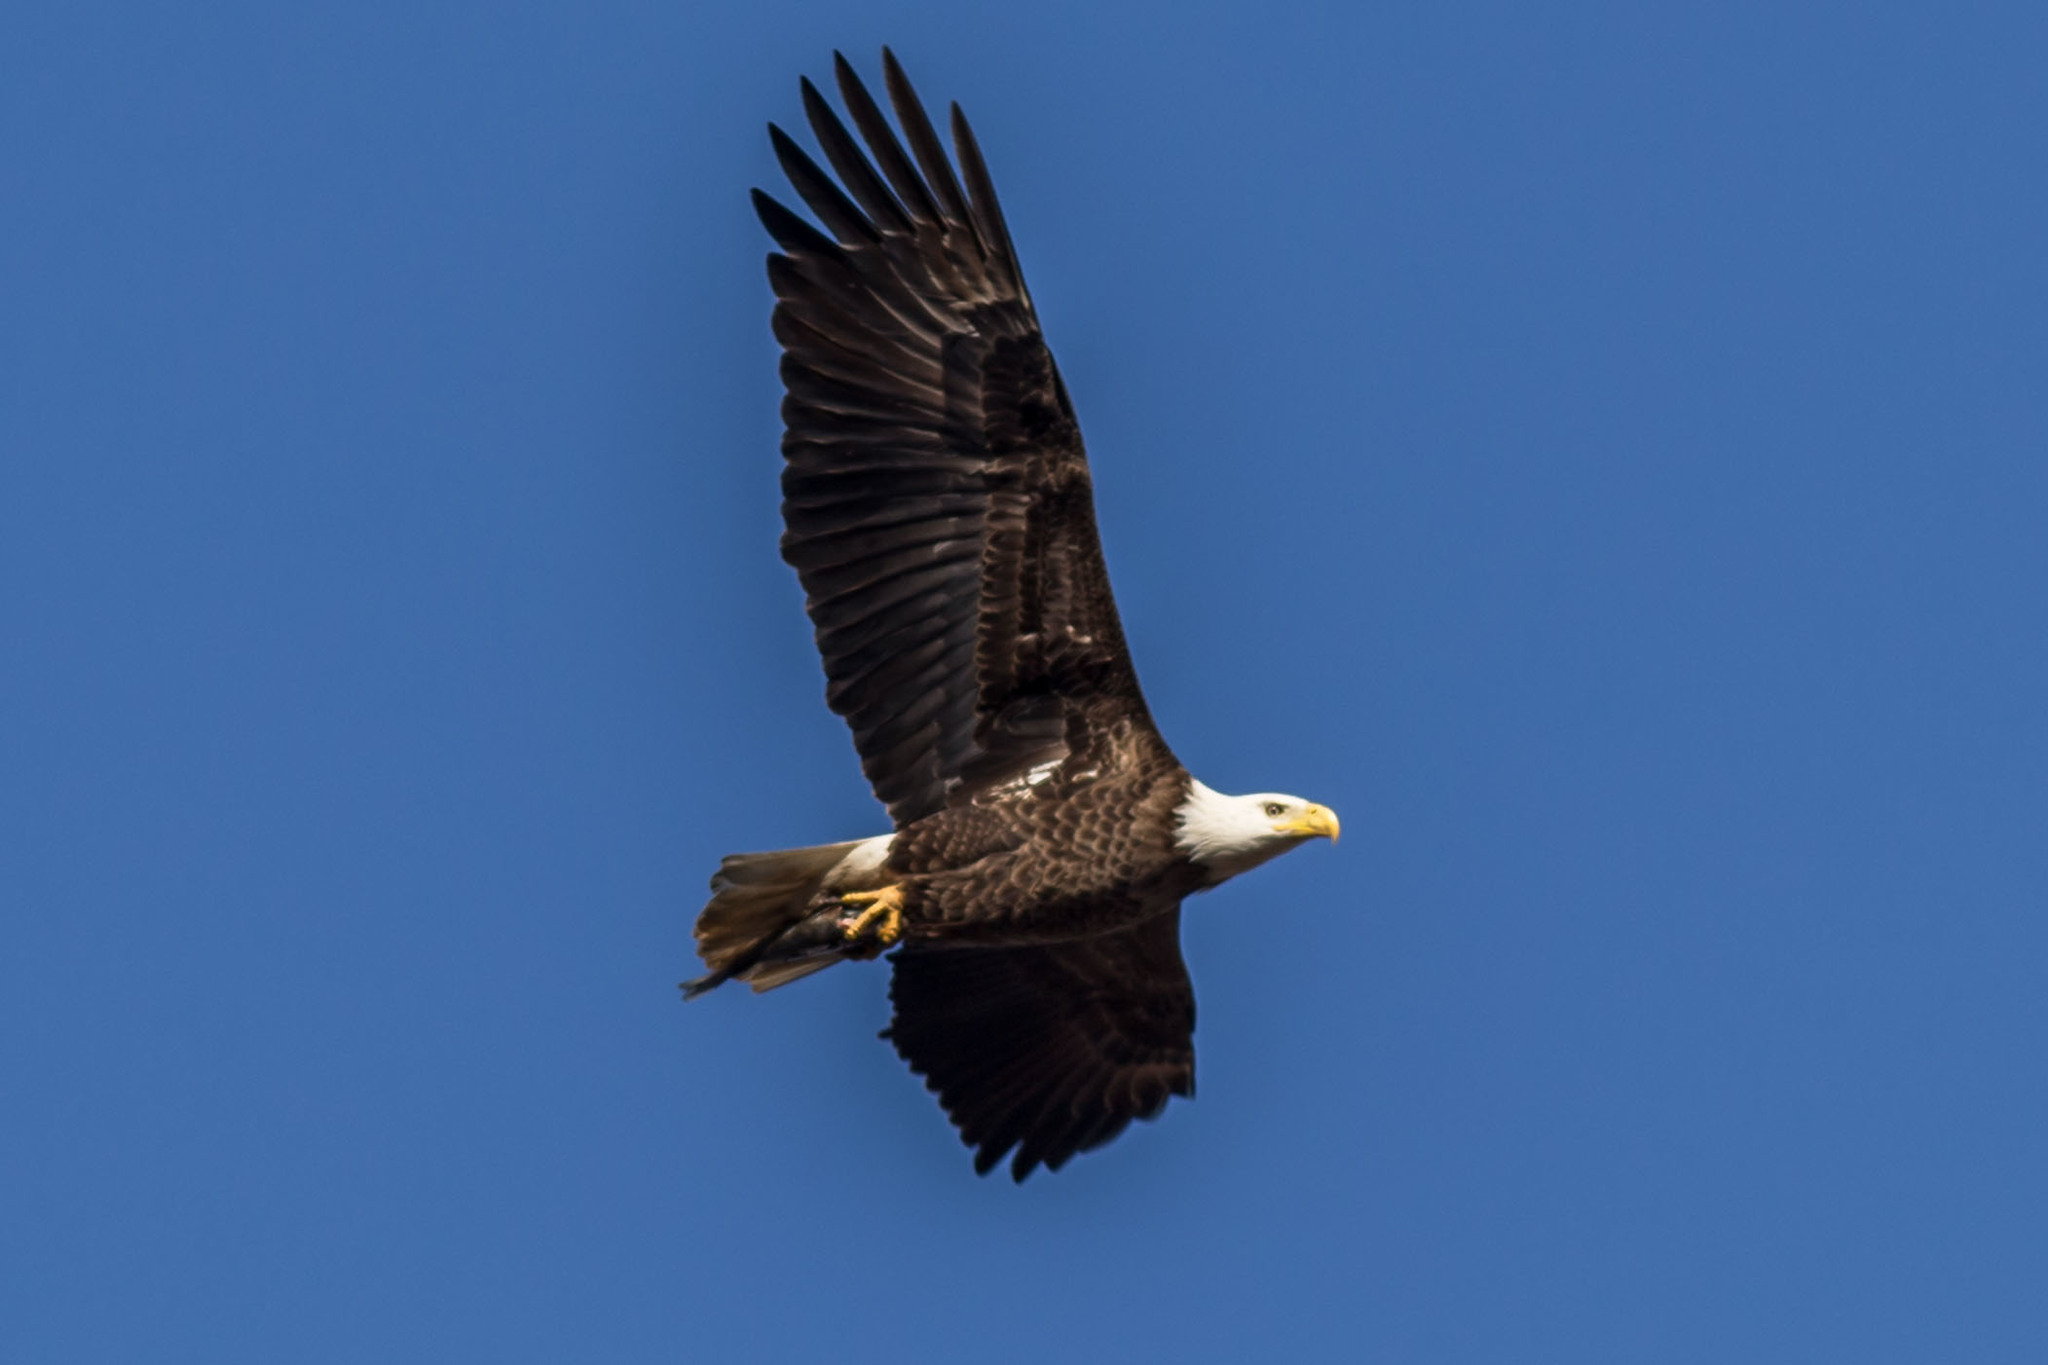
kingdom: Animalia
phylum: Chordata
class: Aves
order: Accipitriformes
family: Accipitridae
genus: Haliaeetus
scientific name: Haliaeetus leucocephalus
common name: Bald eagle
